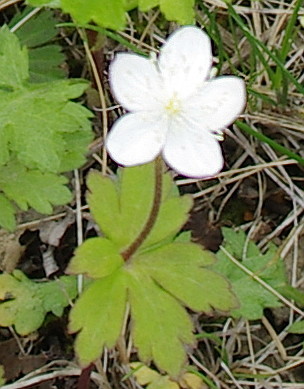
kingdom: Plantae
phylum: Tracheophyta
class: Magnoliopsida
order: Ranunculales
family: Ranunculaceae
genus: Anemonastrum
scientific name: Anemonastrum baicalense
